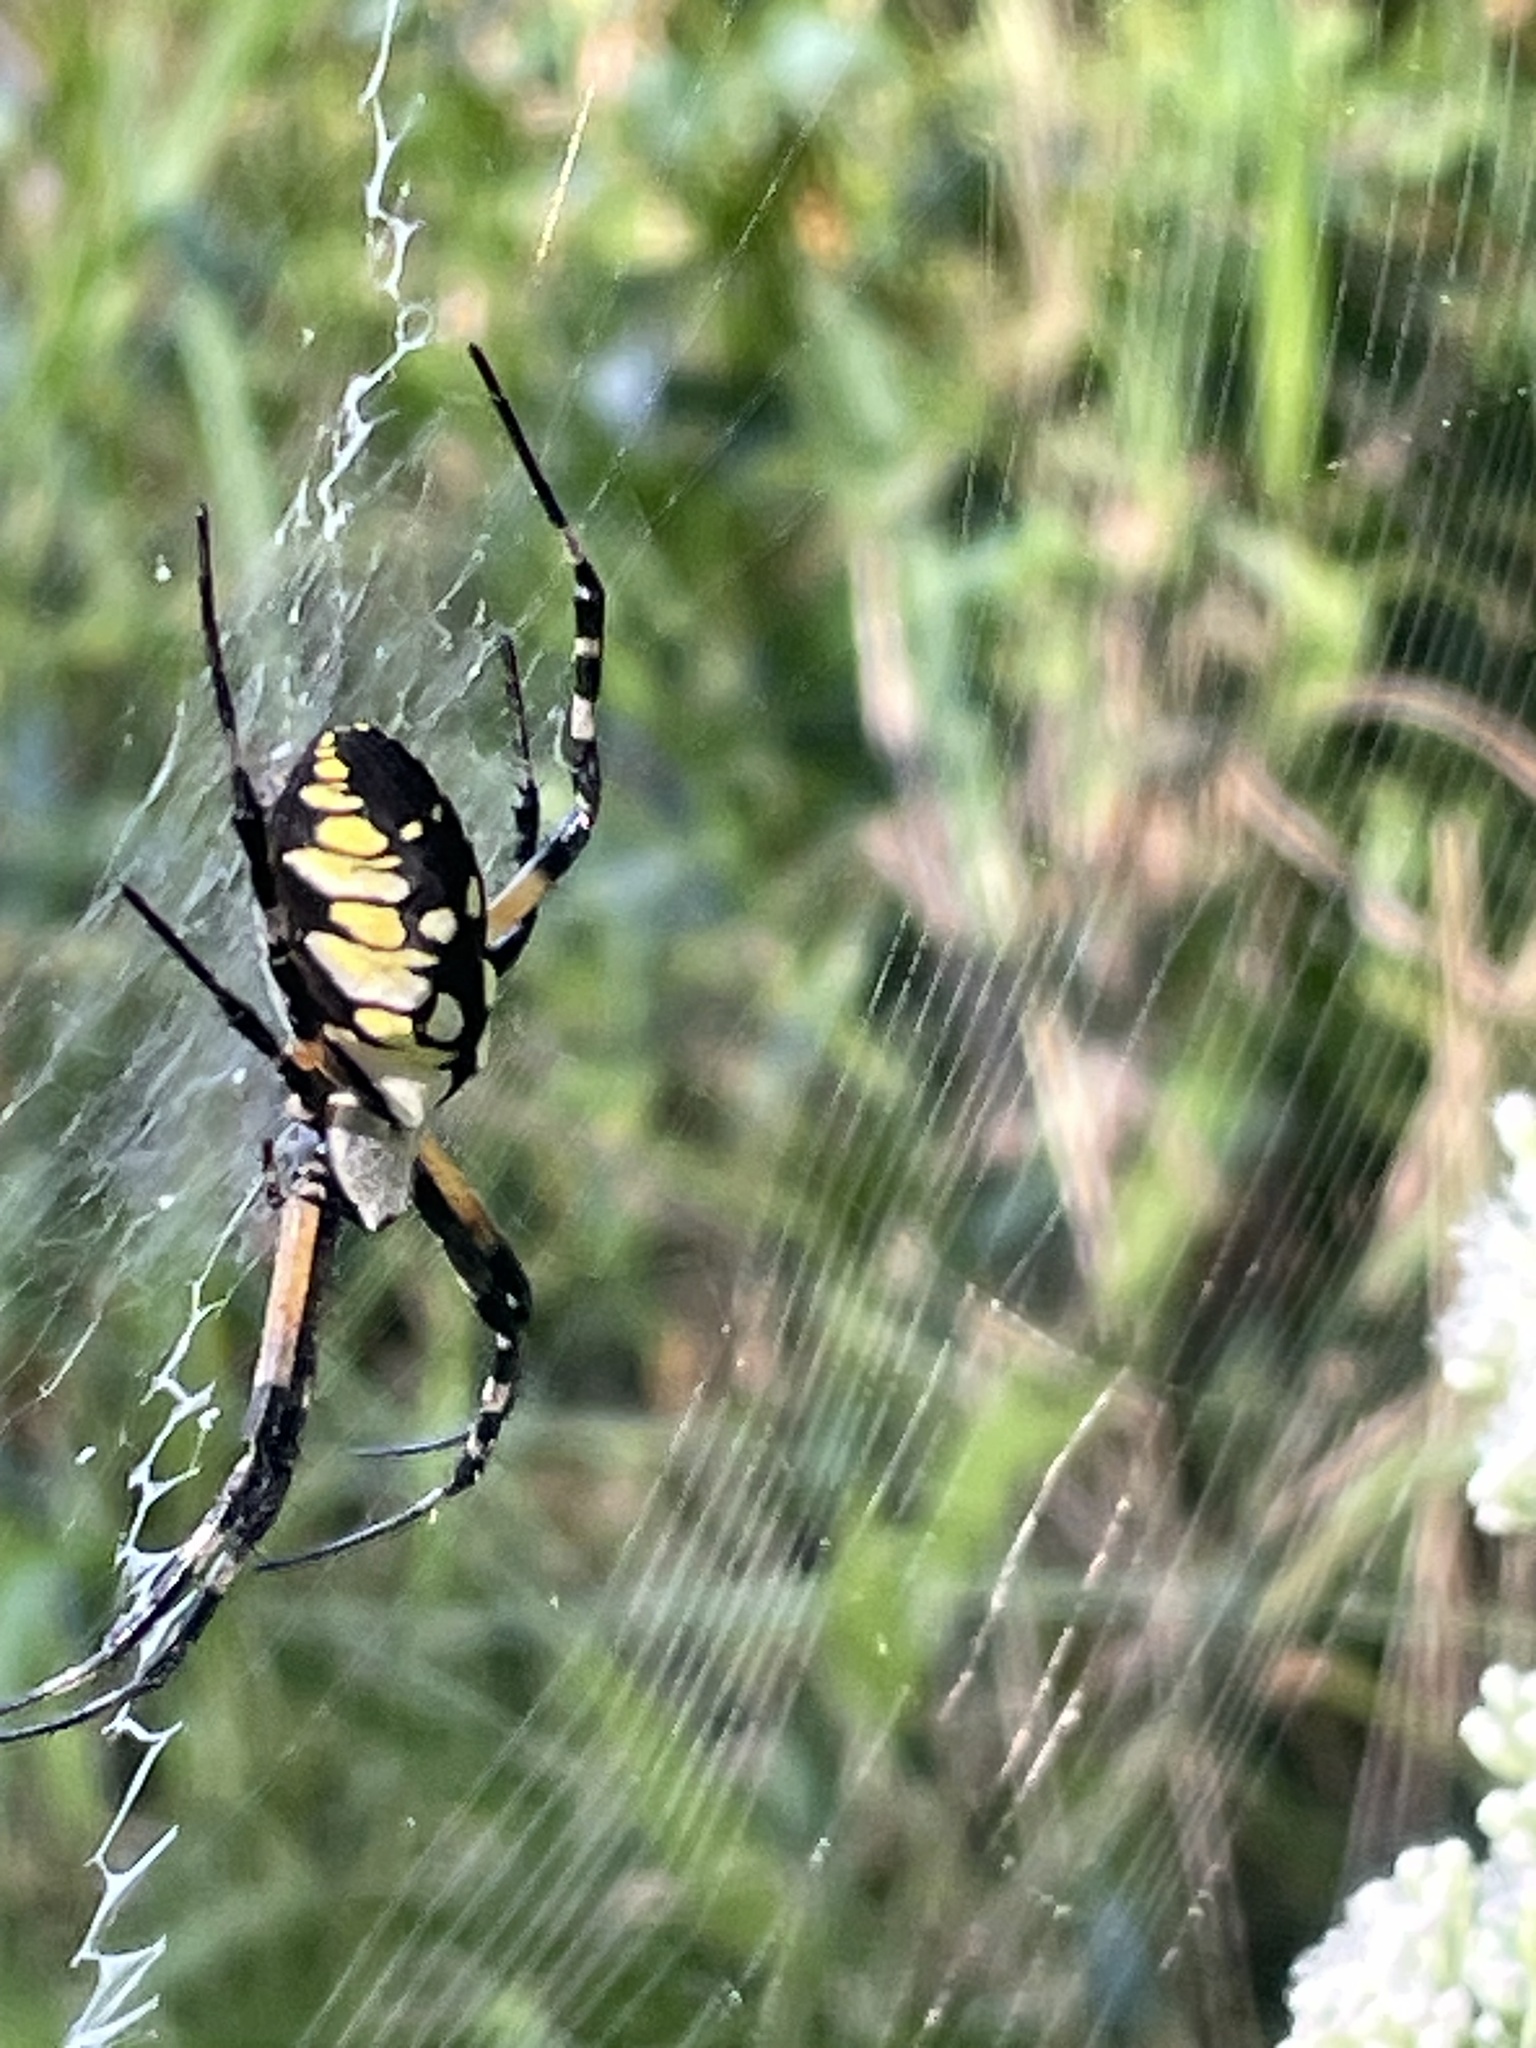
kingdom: Animalia
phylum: Arthropoda
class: Arachnida
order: Araneae
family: Araneidae
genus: Argiope
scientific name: Argiope aurantia
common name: Orb weavers
